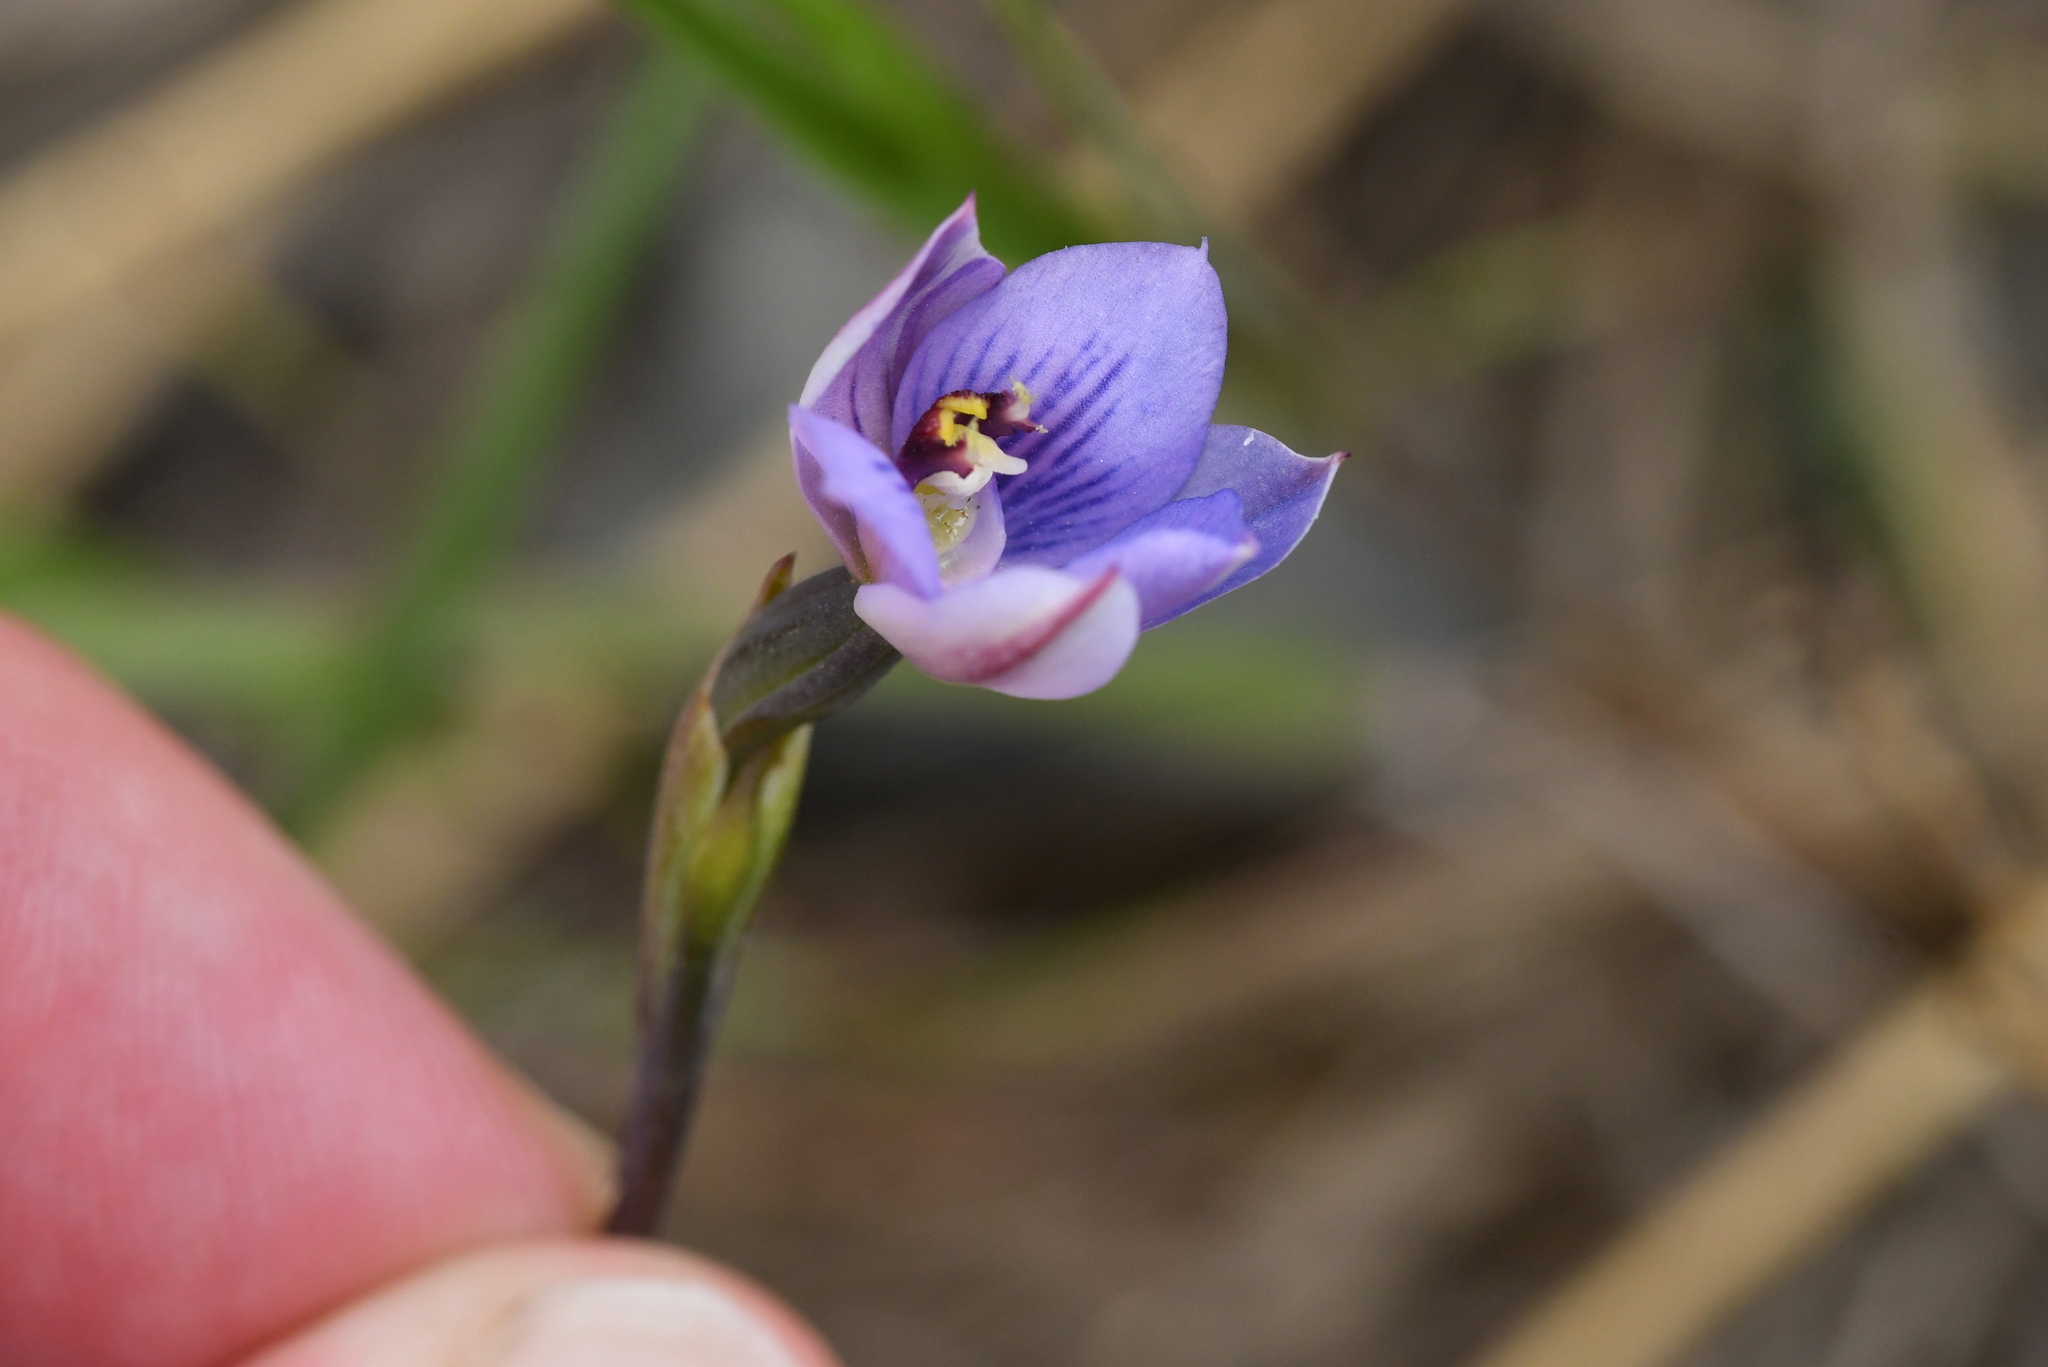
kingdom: Plantae
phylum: Tracheophyta
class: Liliopsida
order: Asparagales
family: Orchidaceae
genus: Thelymitra
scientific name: Thelymitra pulchella
